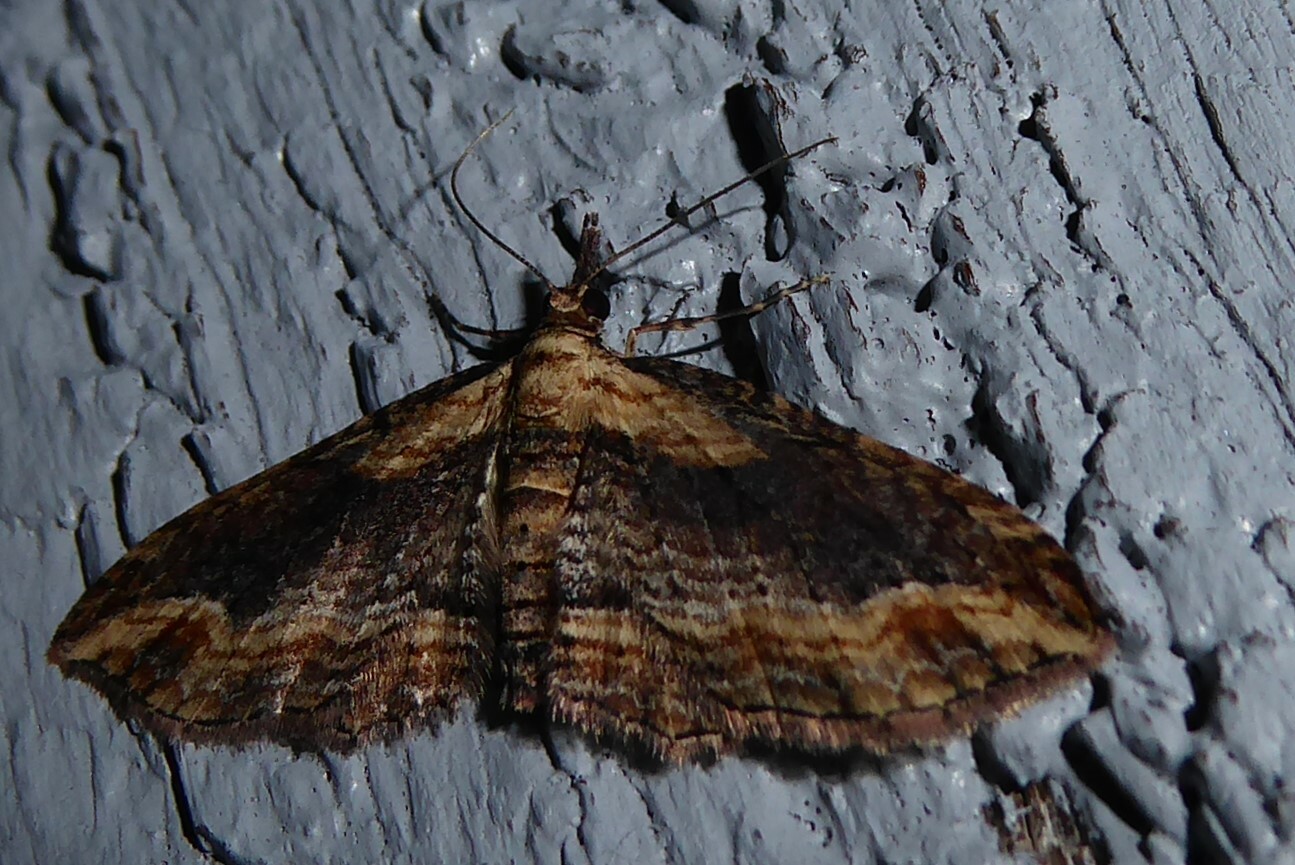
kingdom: Animalia
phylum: Arthropoda
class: Insecta
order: Lepidoptera
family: Geometridae
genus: Chloroclystis
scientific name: Chloroclystis filata
